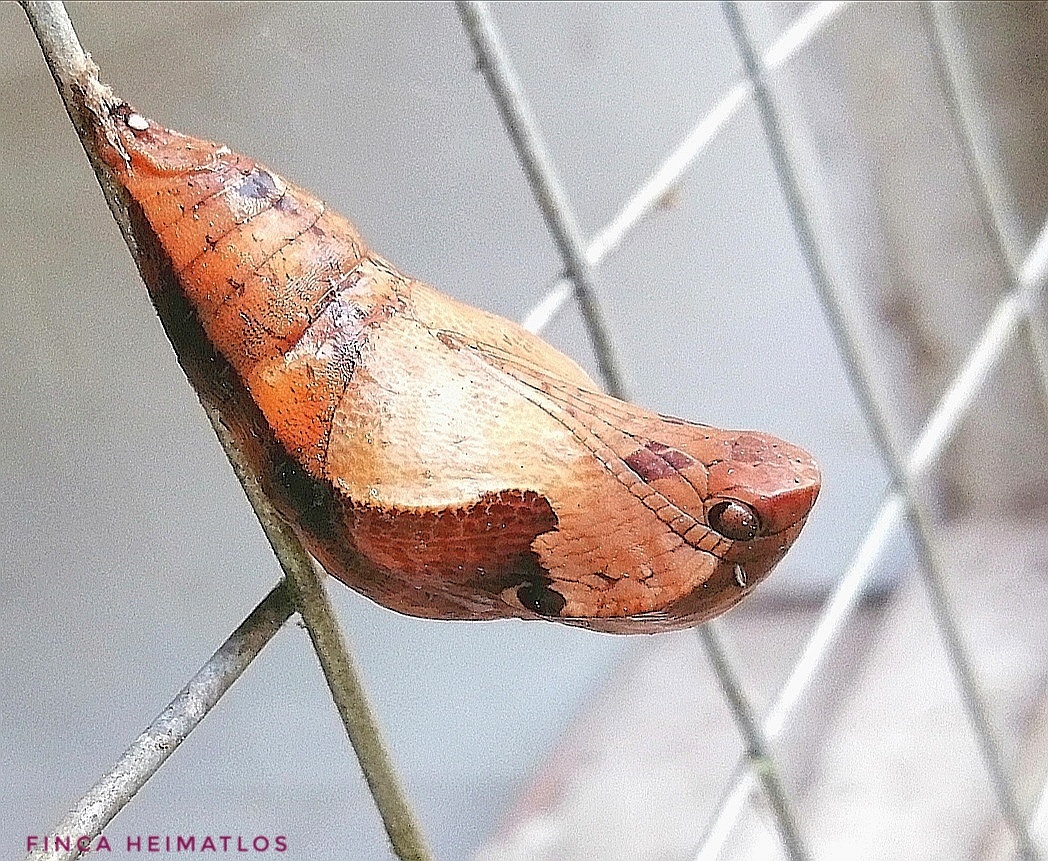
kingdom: Animalia
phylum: Arthropoda
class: Insecta
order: Lepidoptera
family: Nymphalidae
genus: Dynastor
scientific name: Dynastor darius
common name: Daring owl-butterfly
